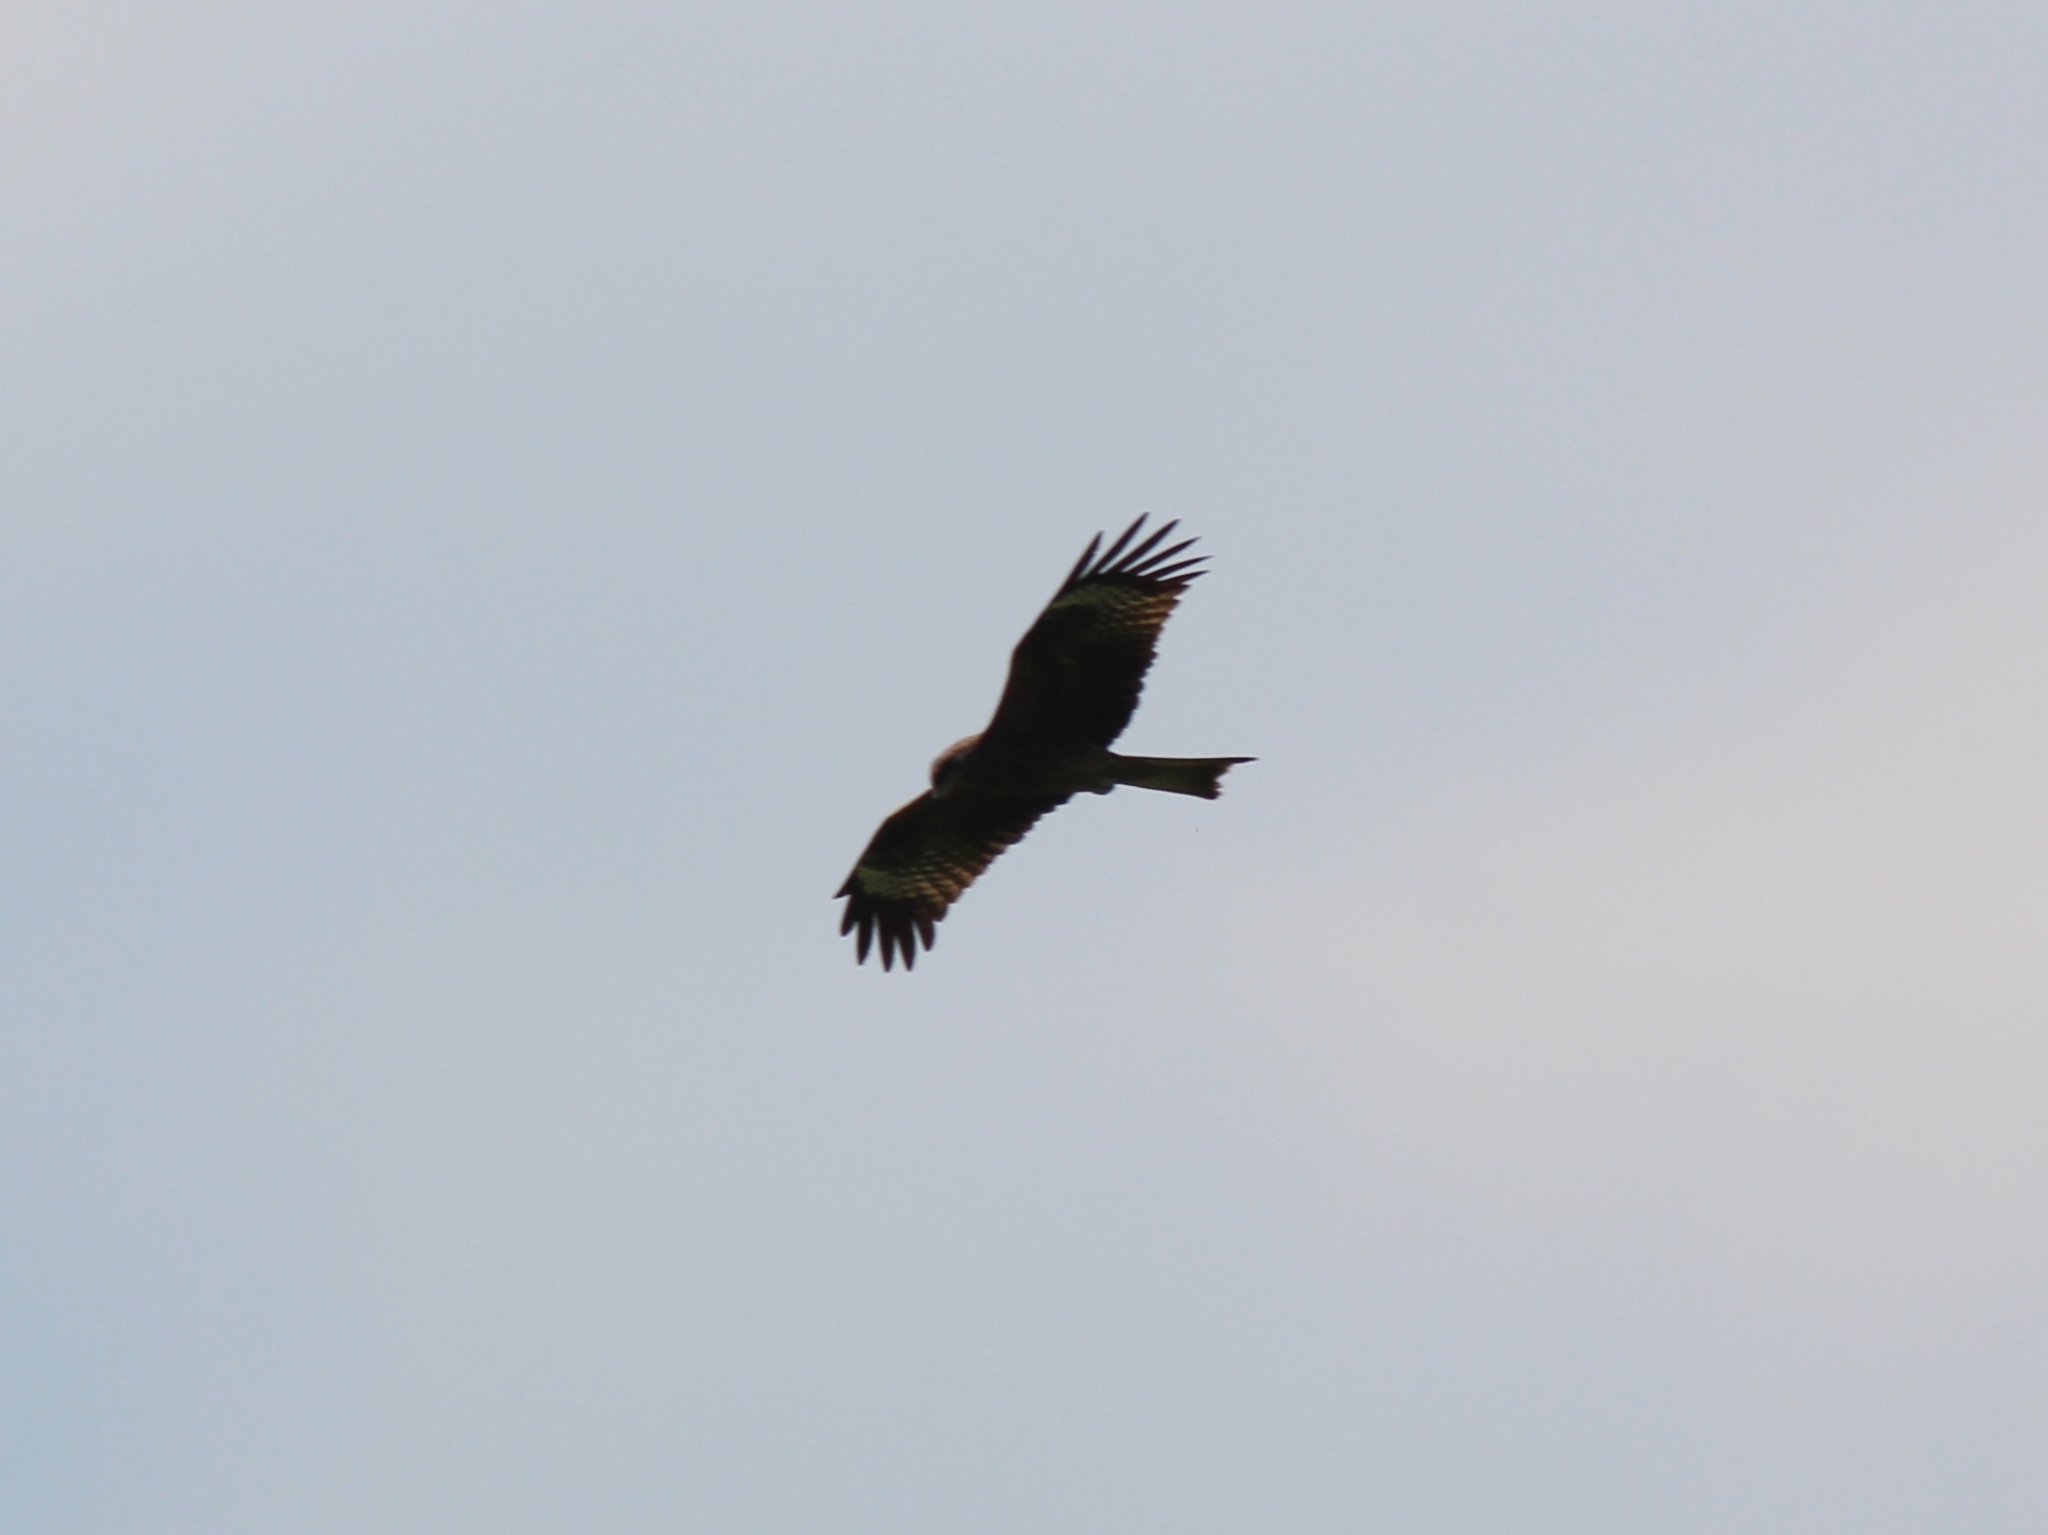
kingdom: Animalia
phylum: Chordata
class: Aves
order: Accipitriformes
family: Accipitridae
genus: Milvus
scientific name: Milvus migrans
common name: Black kite
